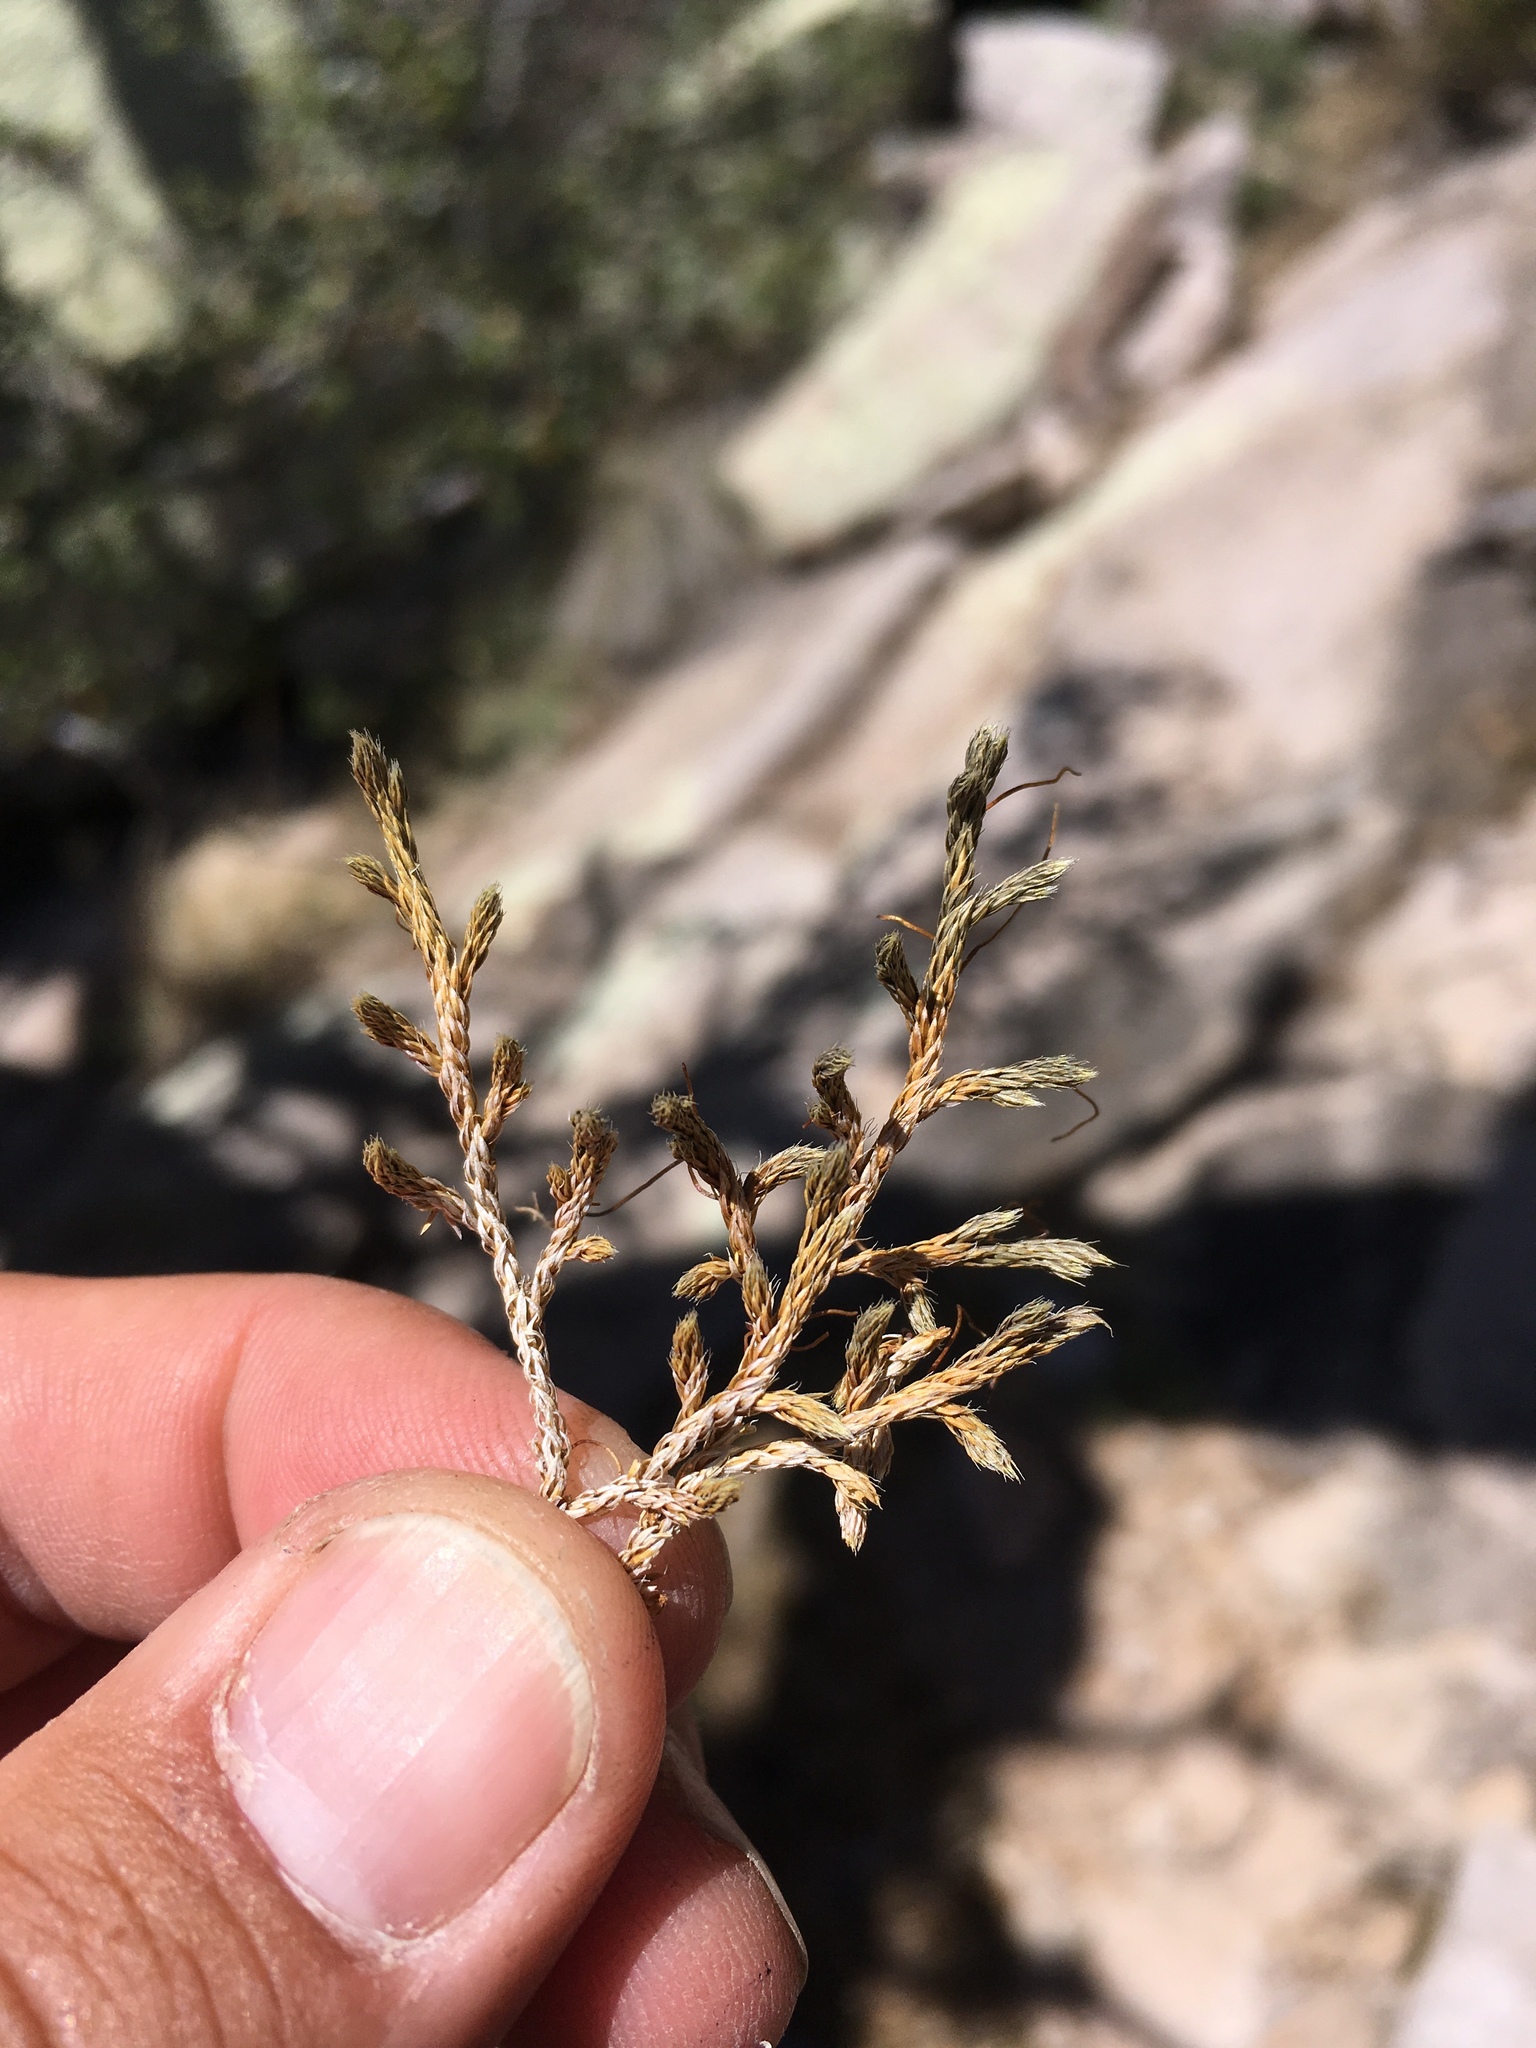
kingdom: Plantae
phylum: Tracheophyta
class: Lycopodiopsida
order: Selaginellales
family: Selaginellaceae
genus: Selaginella
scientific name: Selaginella neomexicana
